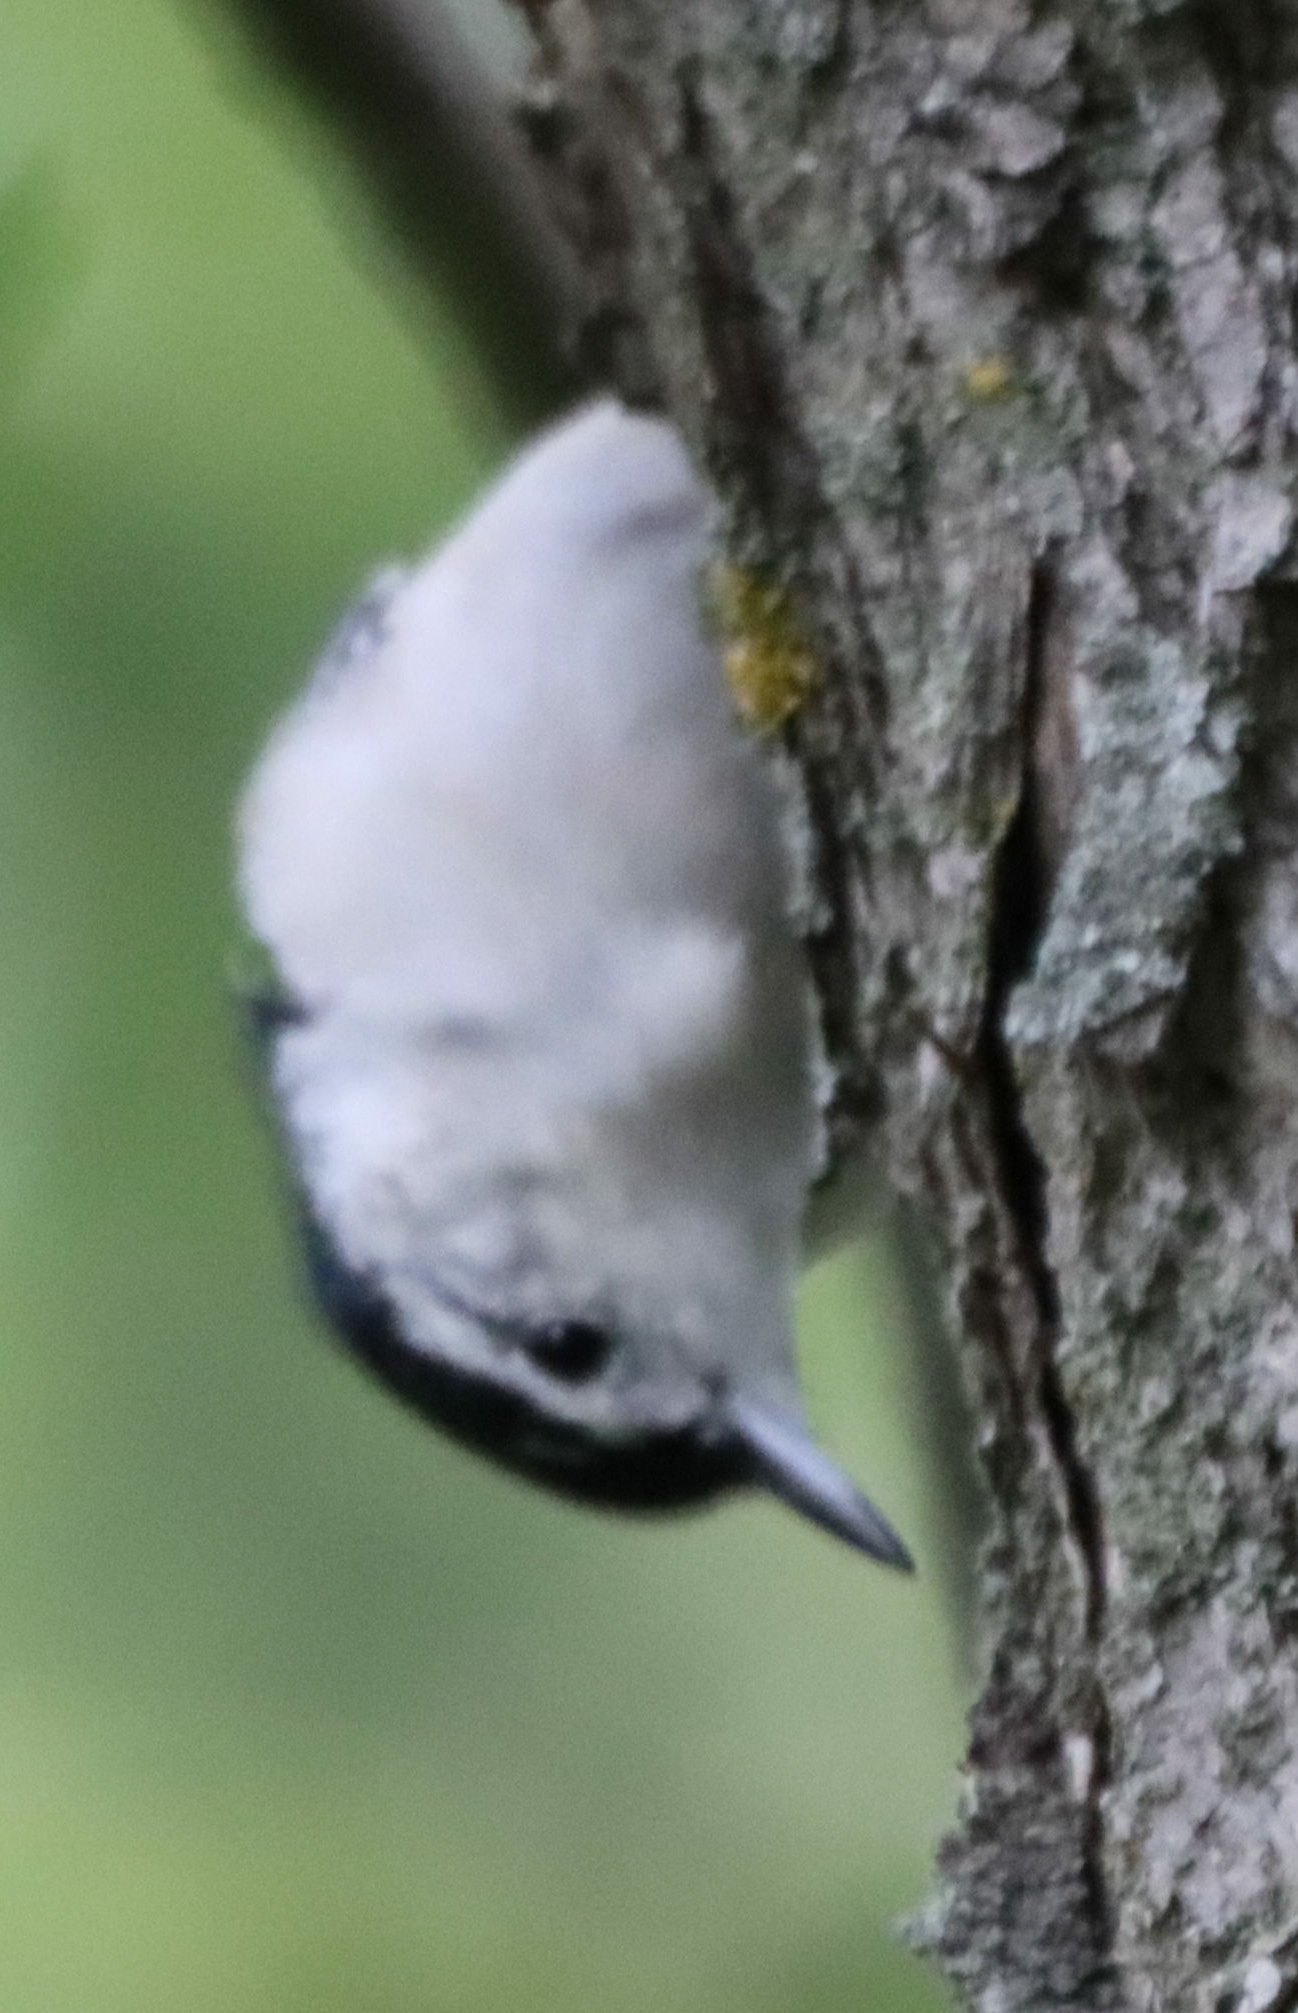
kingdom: Animalia
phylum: Chordata
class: Aves
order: Passeriformes
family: Sittidae
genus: Sitta
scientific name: Sitta carolinensis
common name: White-breasted nuthatch
